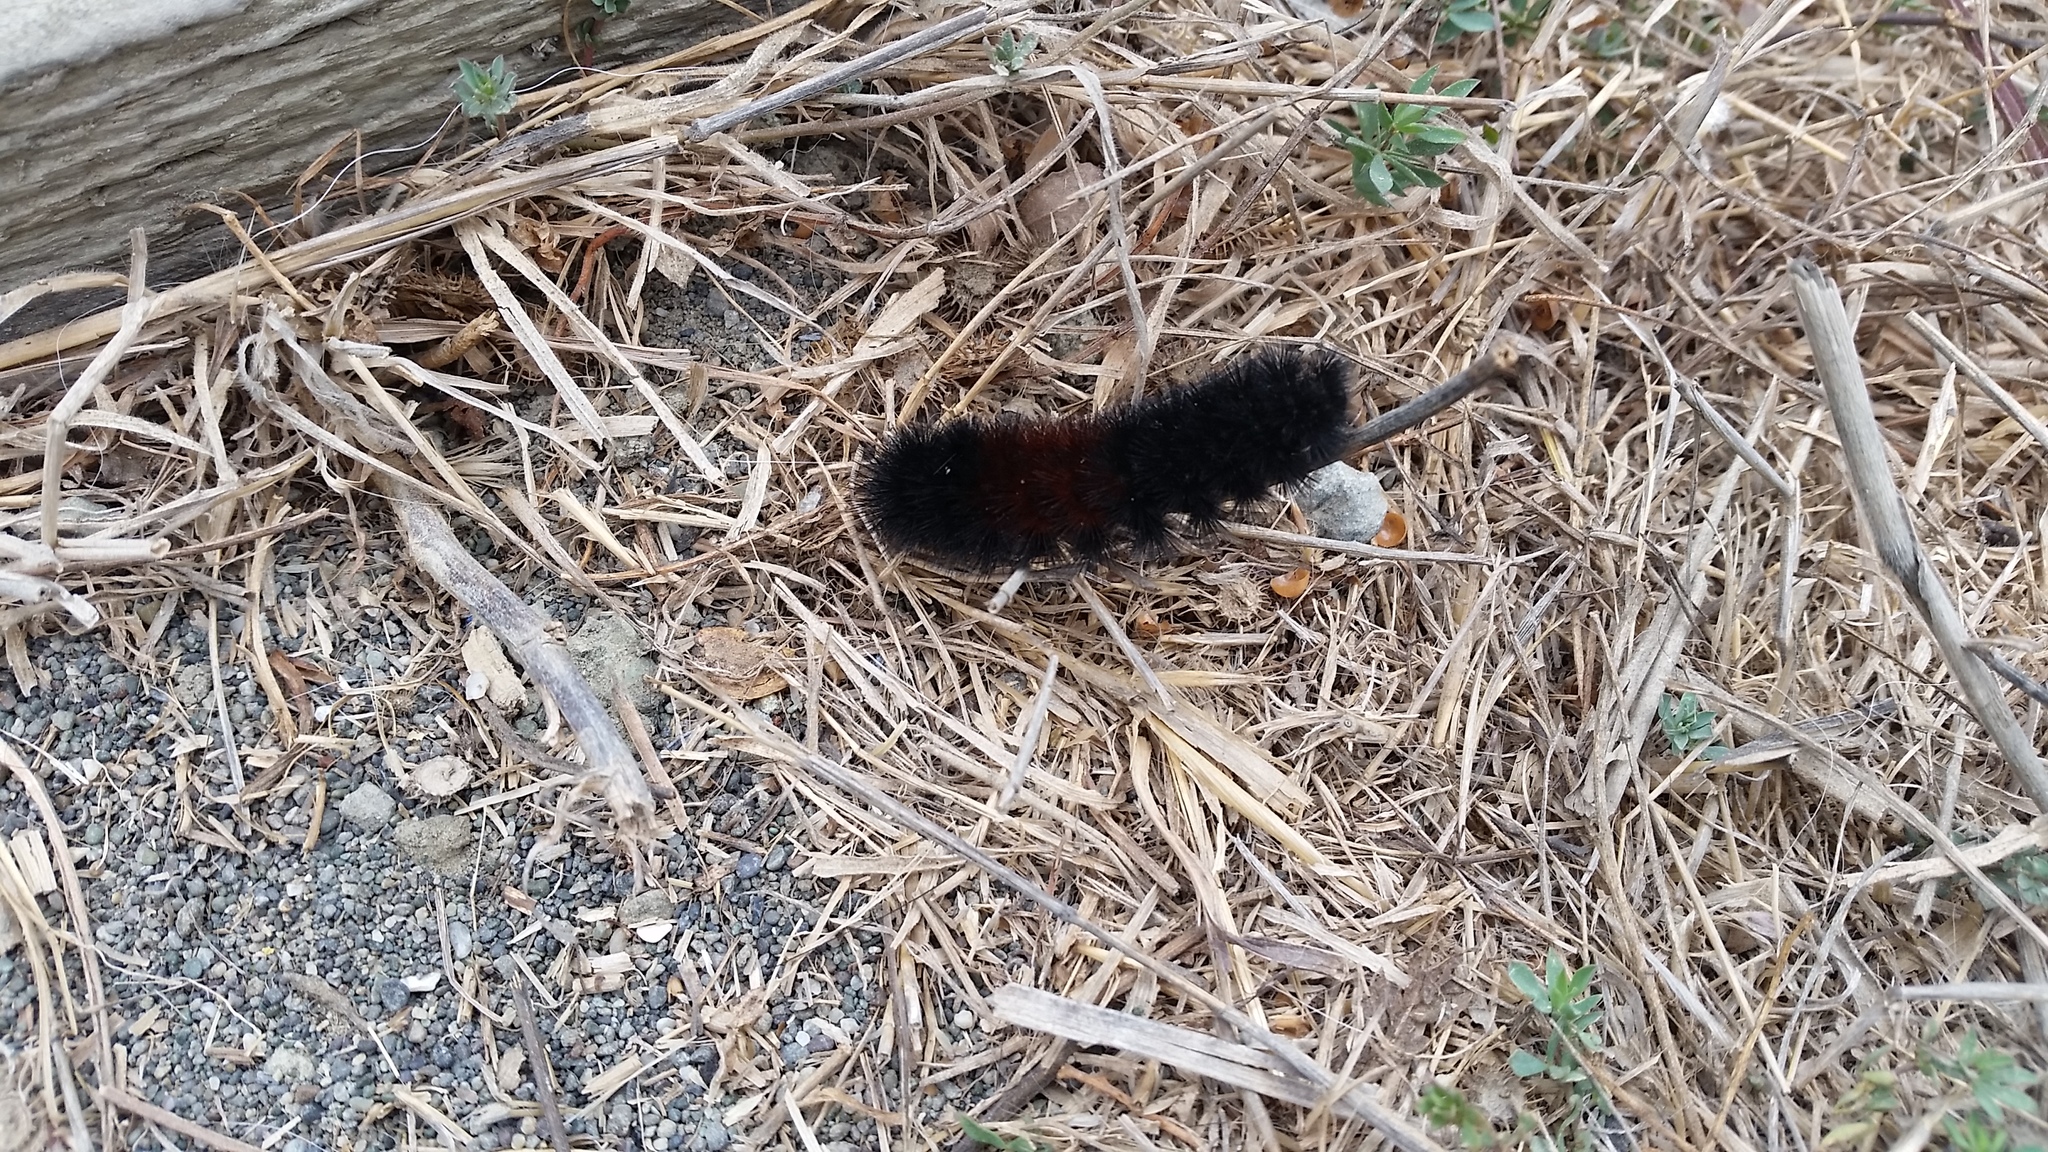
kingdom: Animalia
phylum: Arthropoda
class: Insecta
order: Lepidoptera
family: Erebidae
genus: Pyrrharctia
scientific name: Pyrrharctia isabella
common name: Isabella tiger moth
